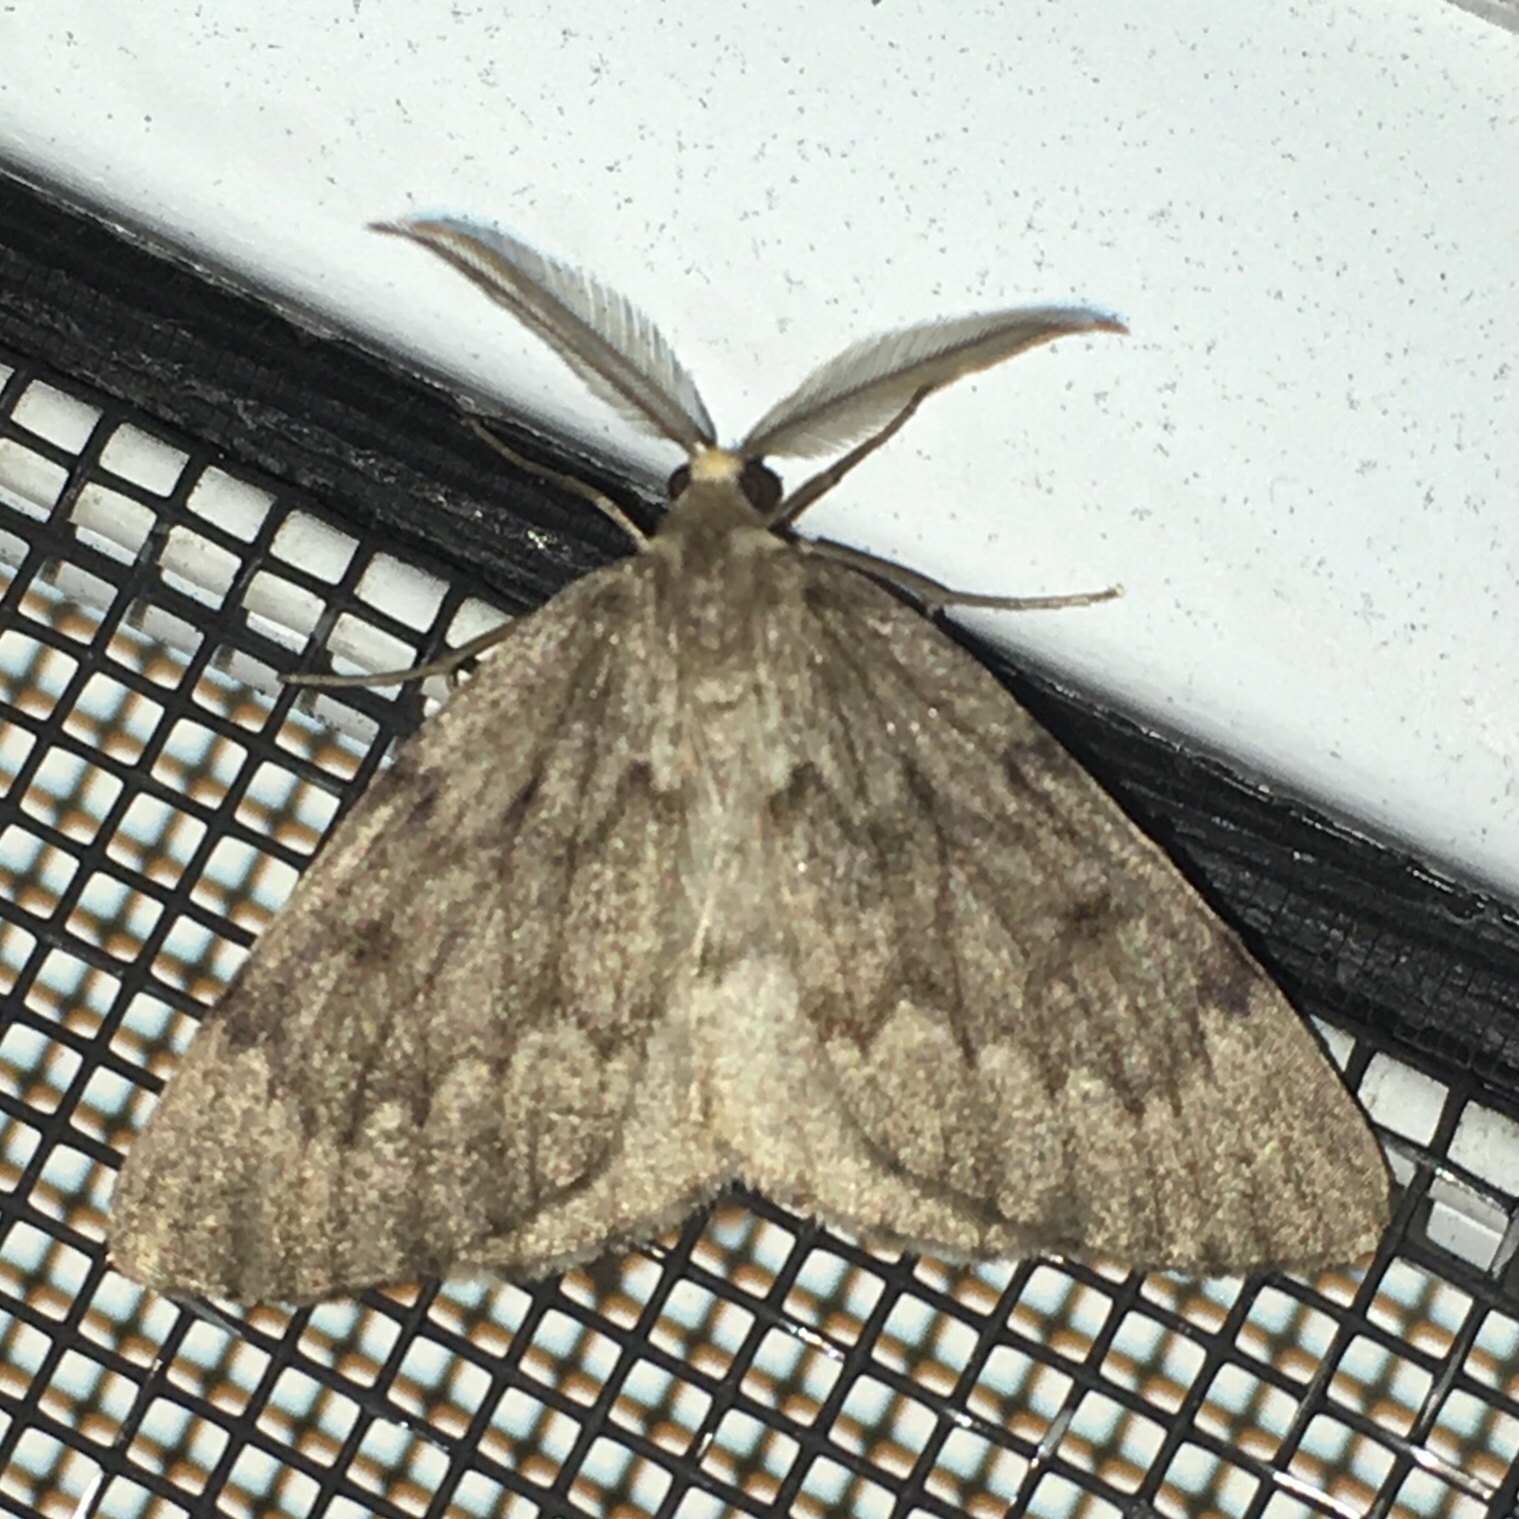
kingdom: Animalia
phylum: Arthropoda
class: Insecta
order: Lepidoptera
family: Geometridae
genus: Nepytia
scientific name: Nepytia canosaria
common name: False hemlock looper
